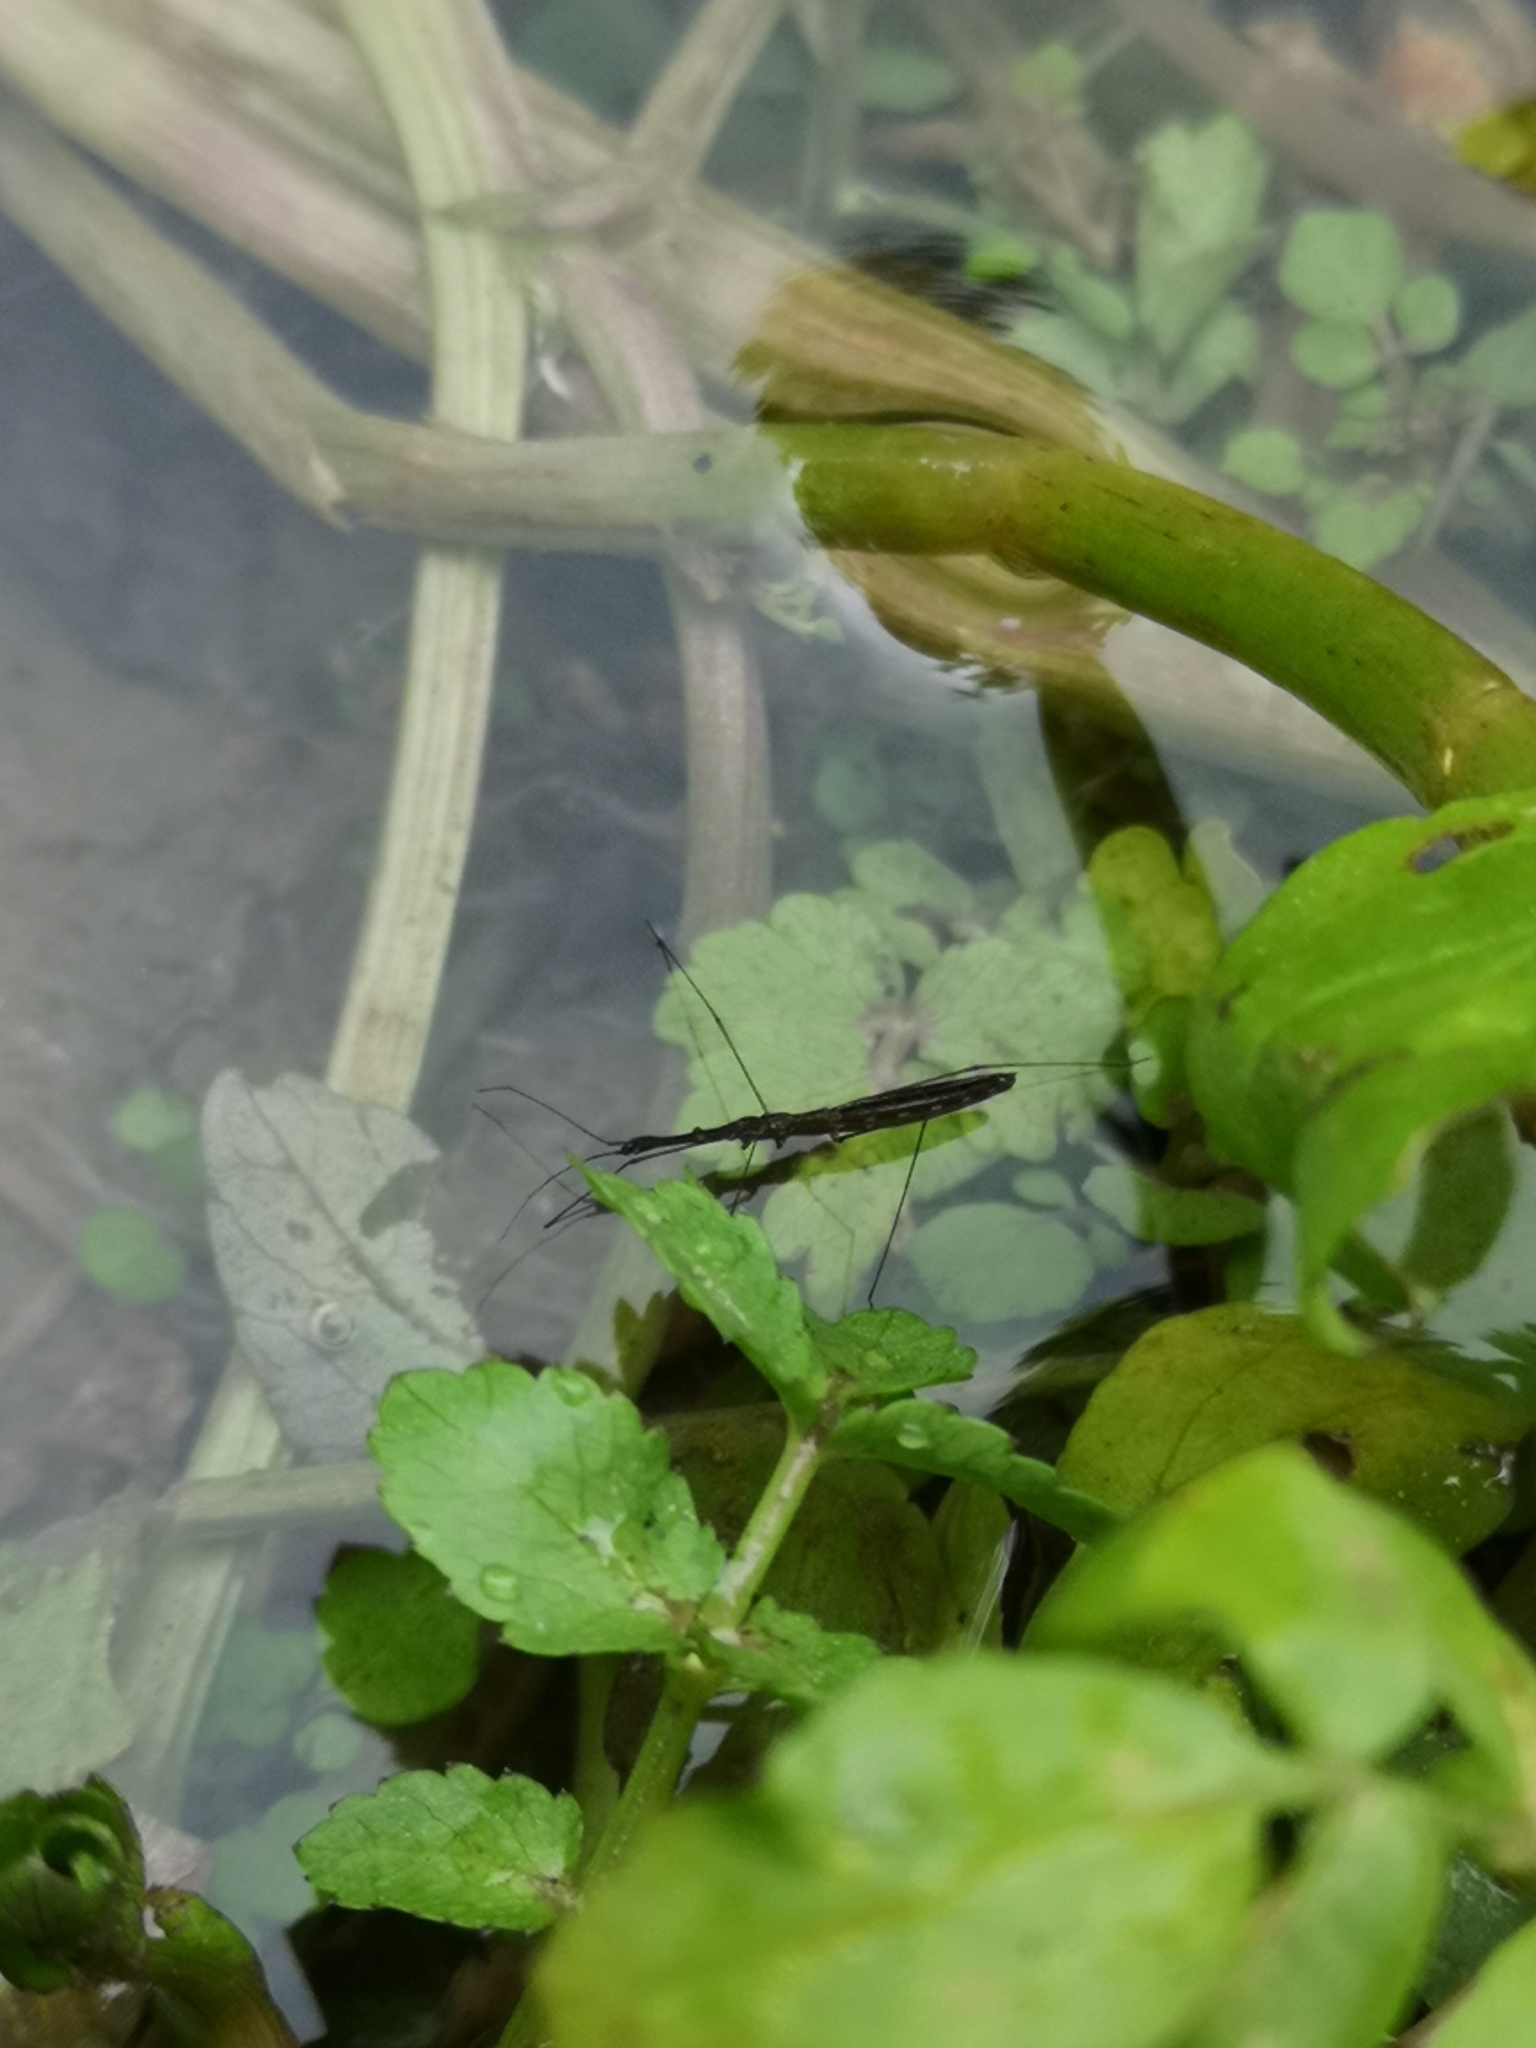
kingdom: Animalia
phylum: Arthropoda
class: Insecta
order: Hemiptera
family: Hydrometridae
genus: Hydrometra
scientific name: Hydrometra stagnorum
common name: Water measurer
